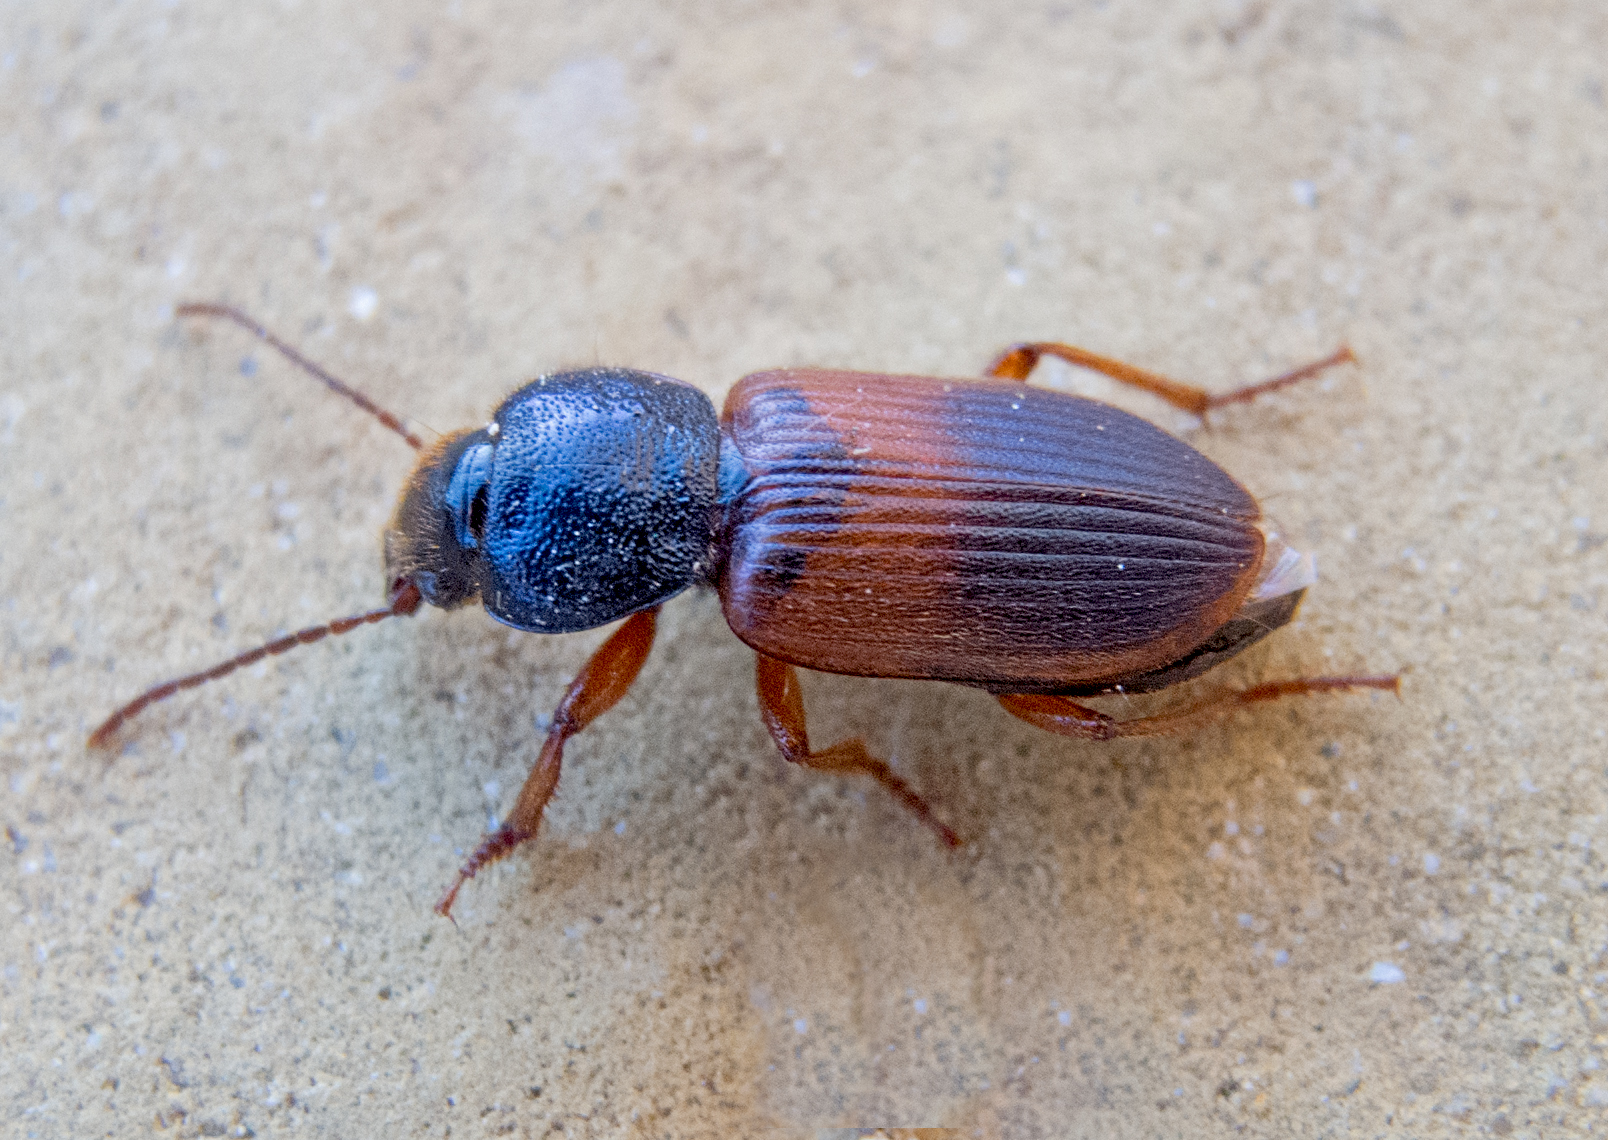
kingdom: Animalia
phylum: Arthropoda
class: Insecta
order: Coleoptera
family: Carabidae
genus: Gynandromorphus
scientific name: Gynandromorphus etruscus
